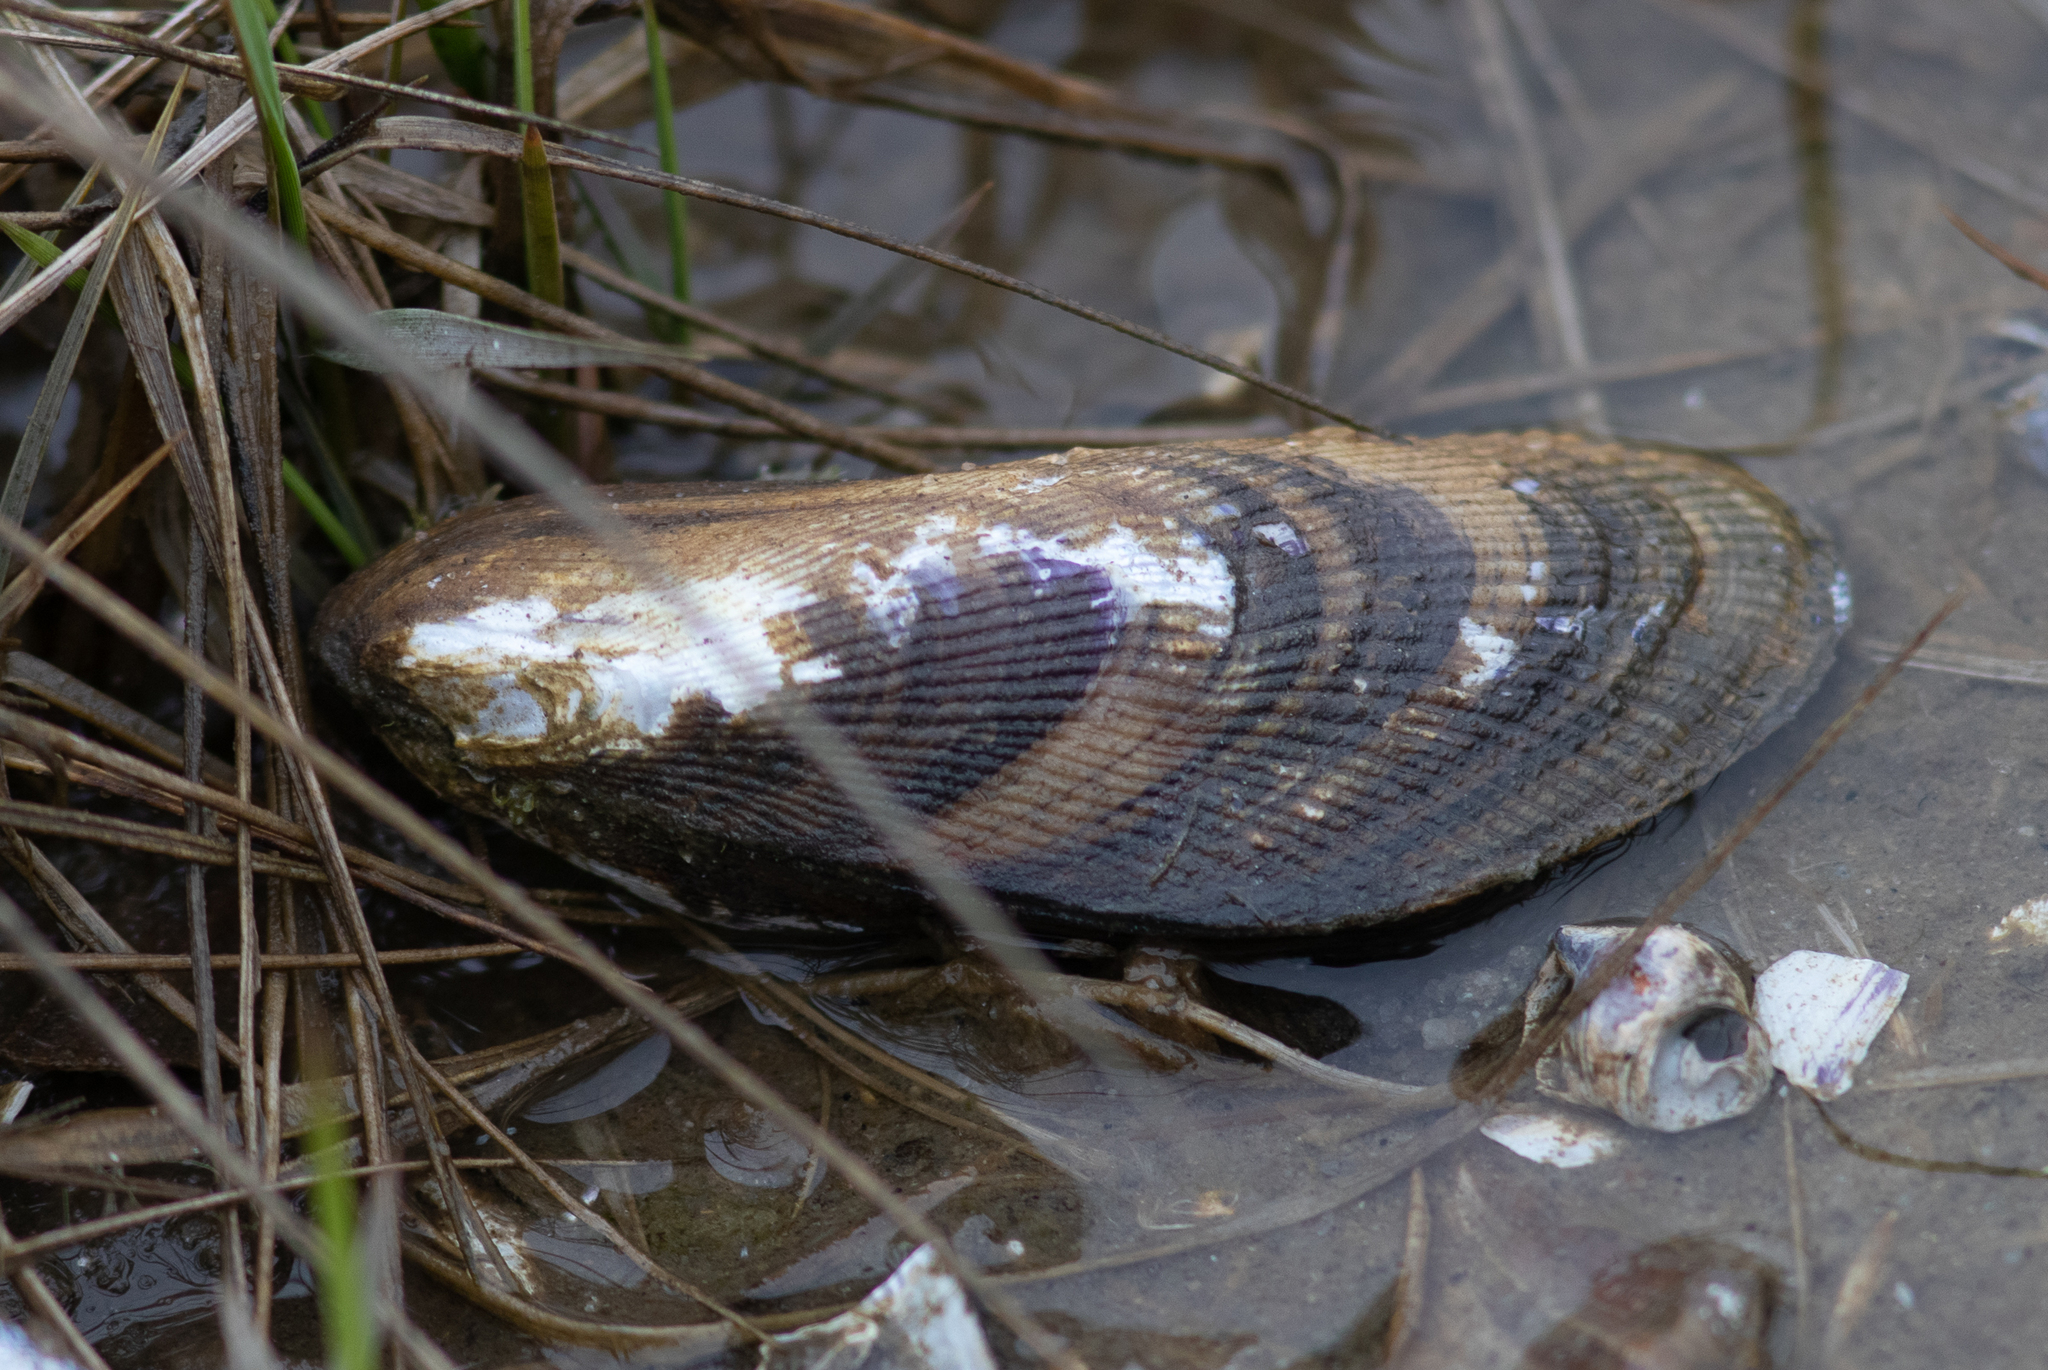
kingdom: Animalia
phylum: Mollusca
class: Bivalvia
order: Mytilida
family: Mytilidae
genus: Geukensia
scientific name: Geukensia demissa
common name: Ribbed mussel
